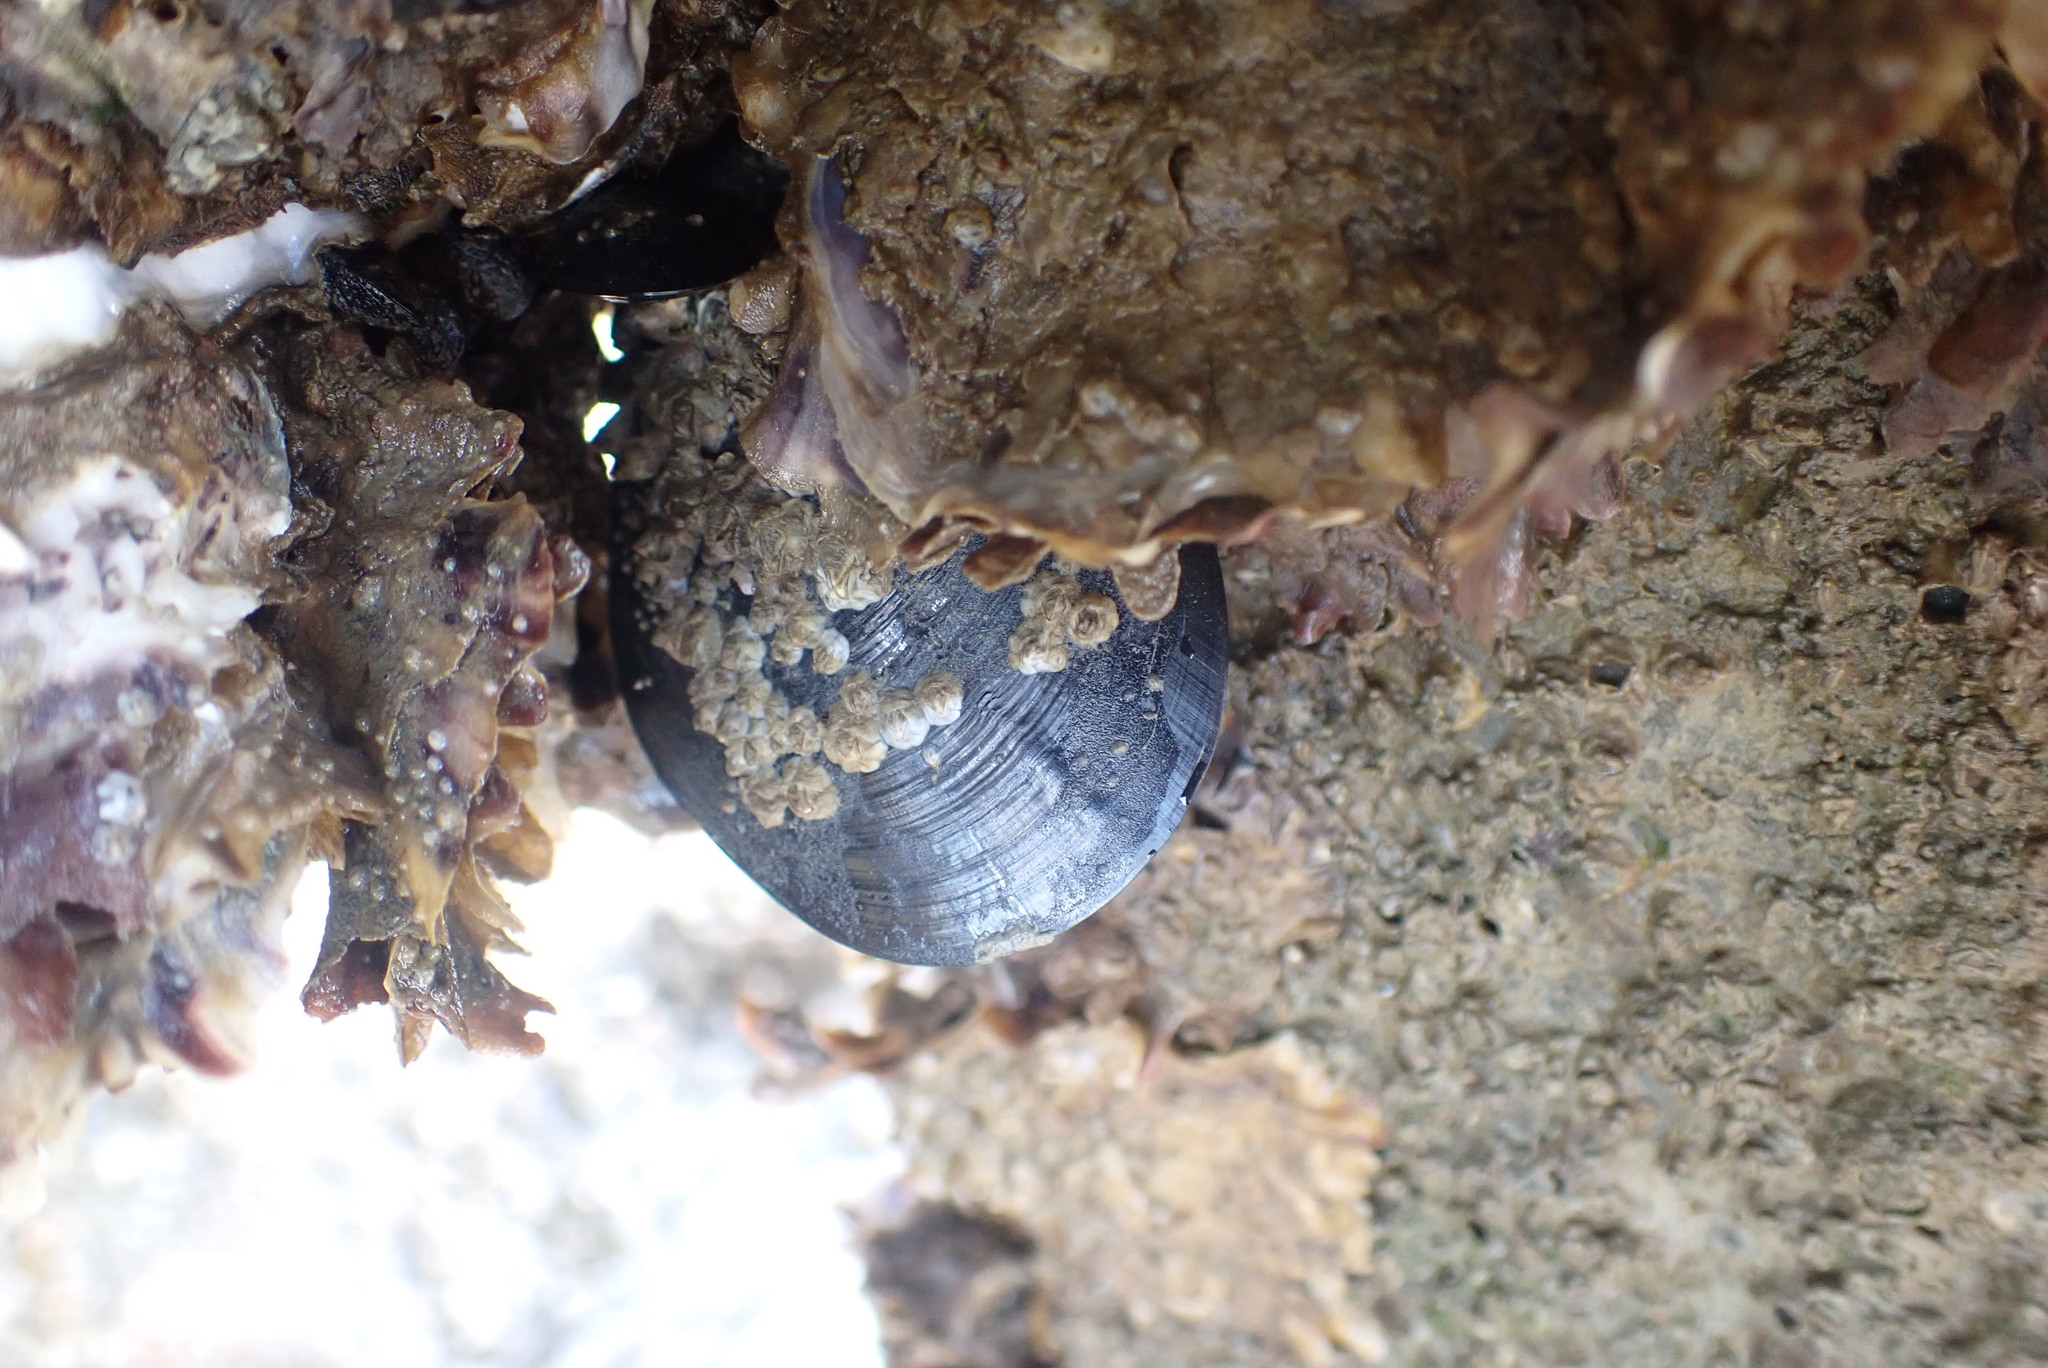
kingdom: Animalia
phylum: Mollusca
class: Bivalvia
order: Mytilida
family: Mytilidae
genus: Mytilus
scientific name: Mytilus planulatus
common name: Australian mussel
